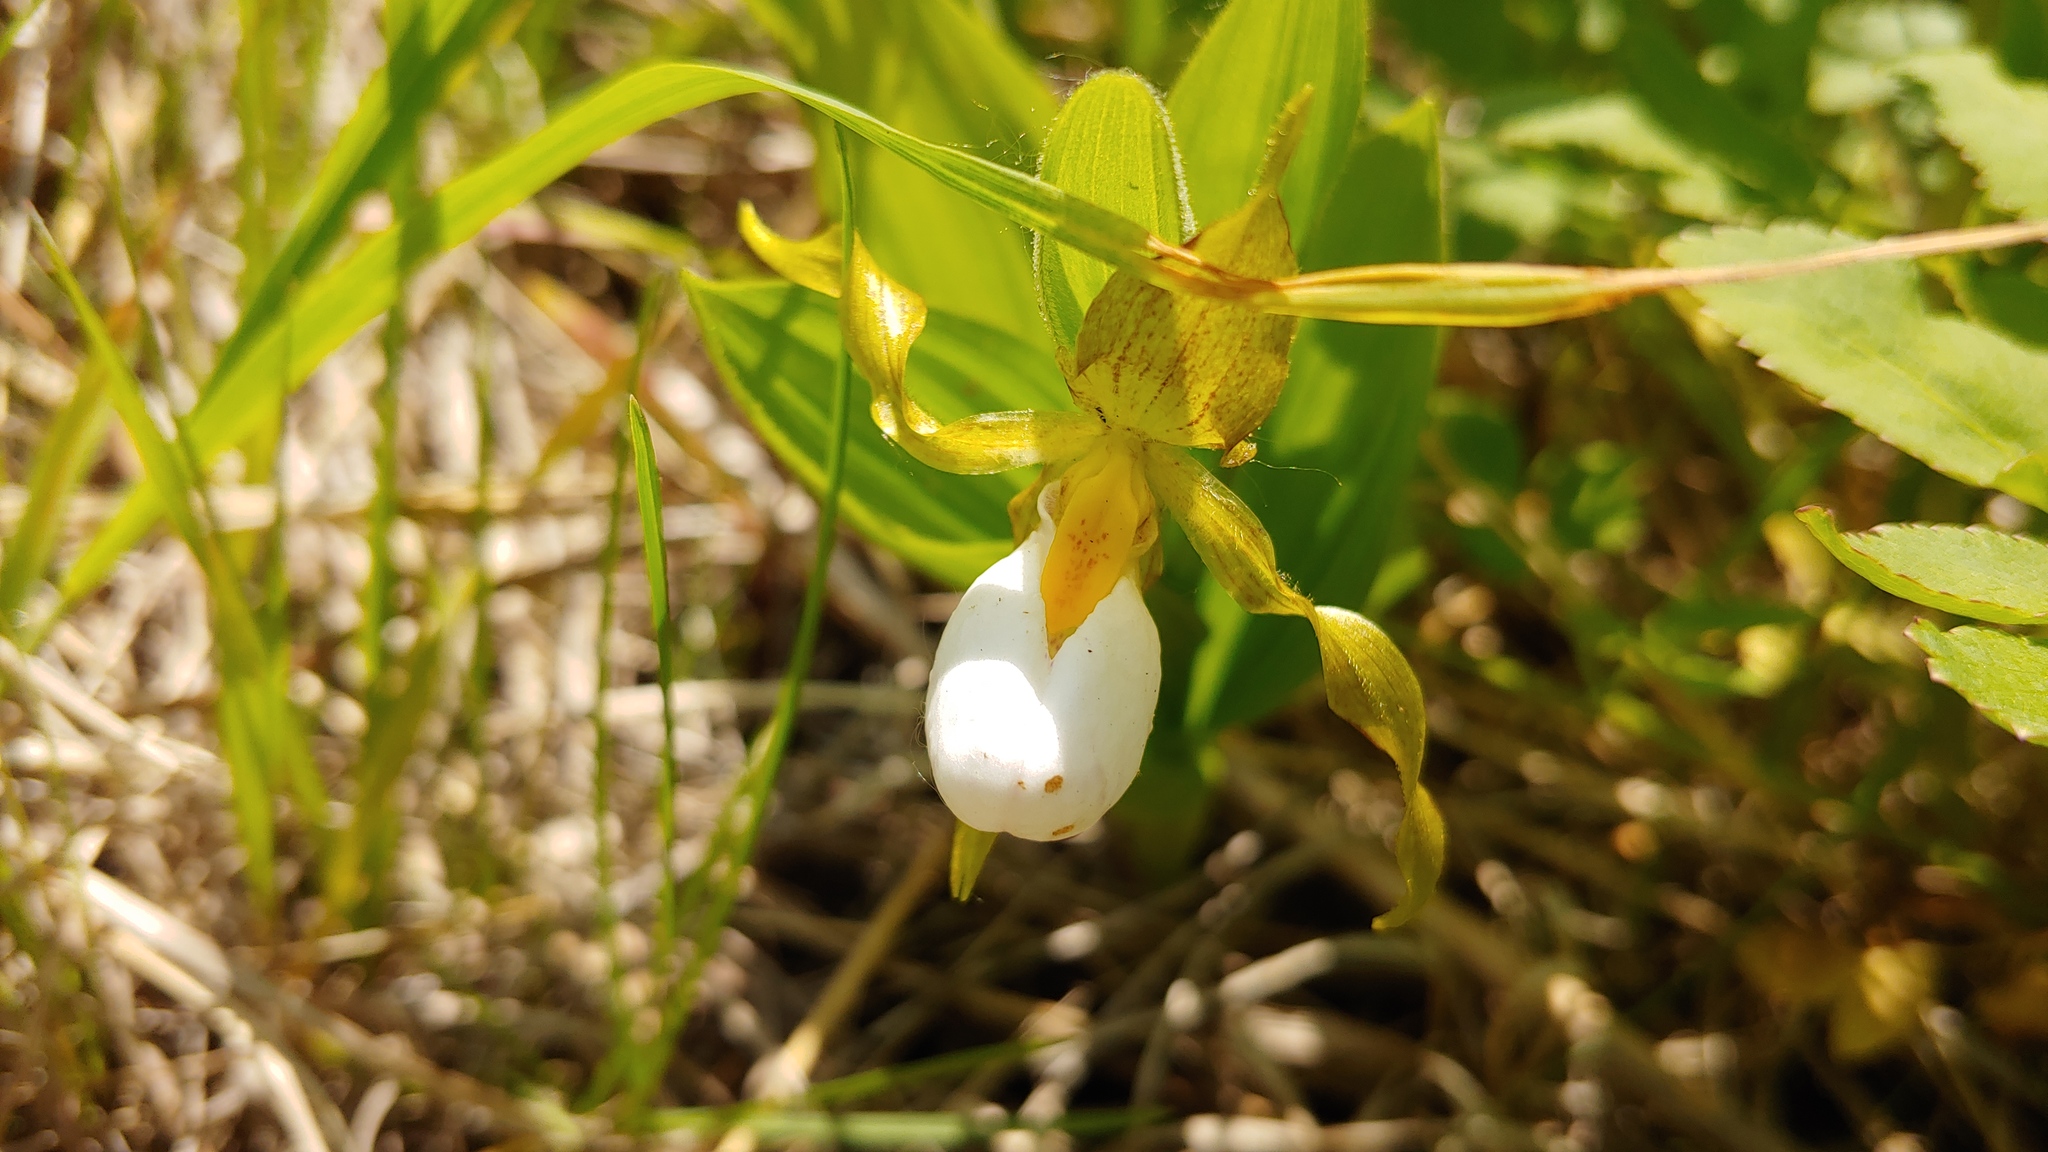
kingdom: Plantae
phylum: Tracheophyta
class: Liliopsida
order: Asparagales
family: Orchidaceae
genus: Cypripedium
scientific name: Cypripedium candidum
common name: White lady's-slipper
